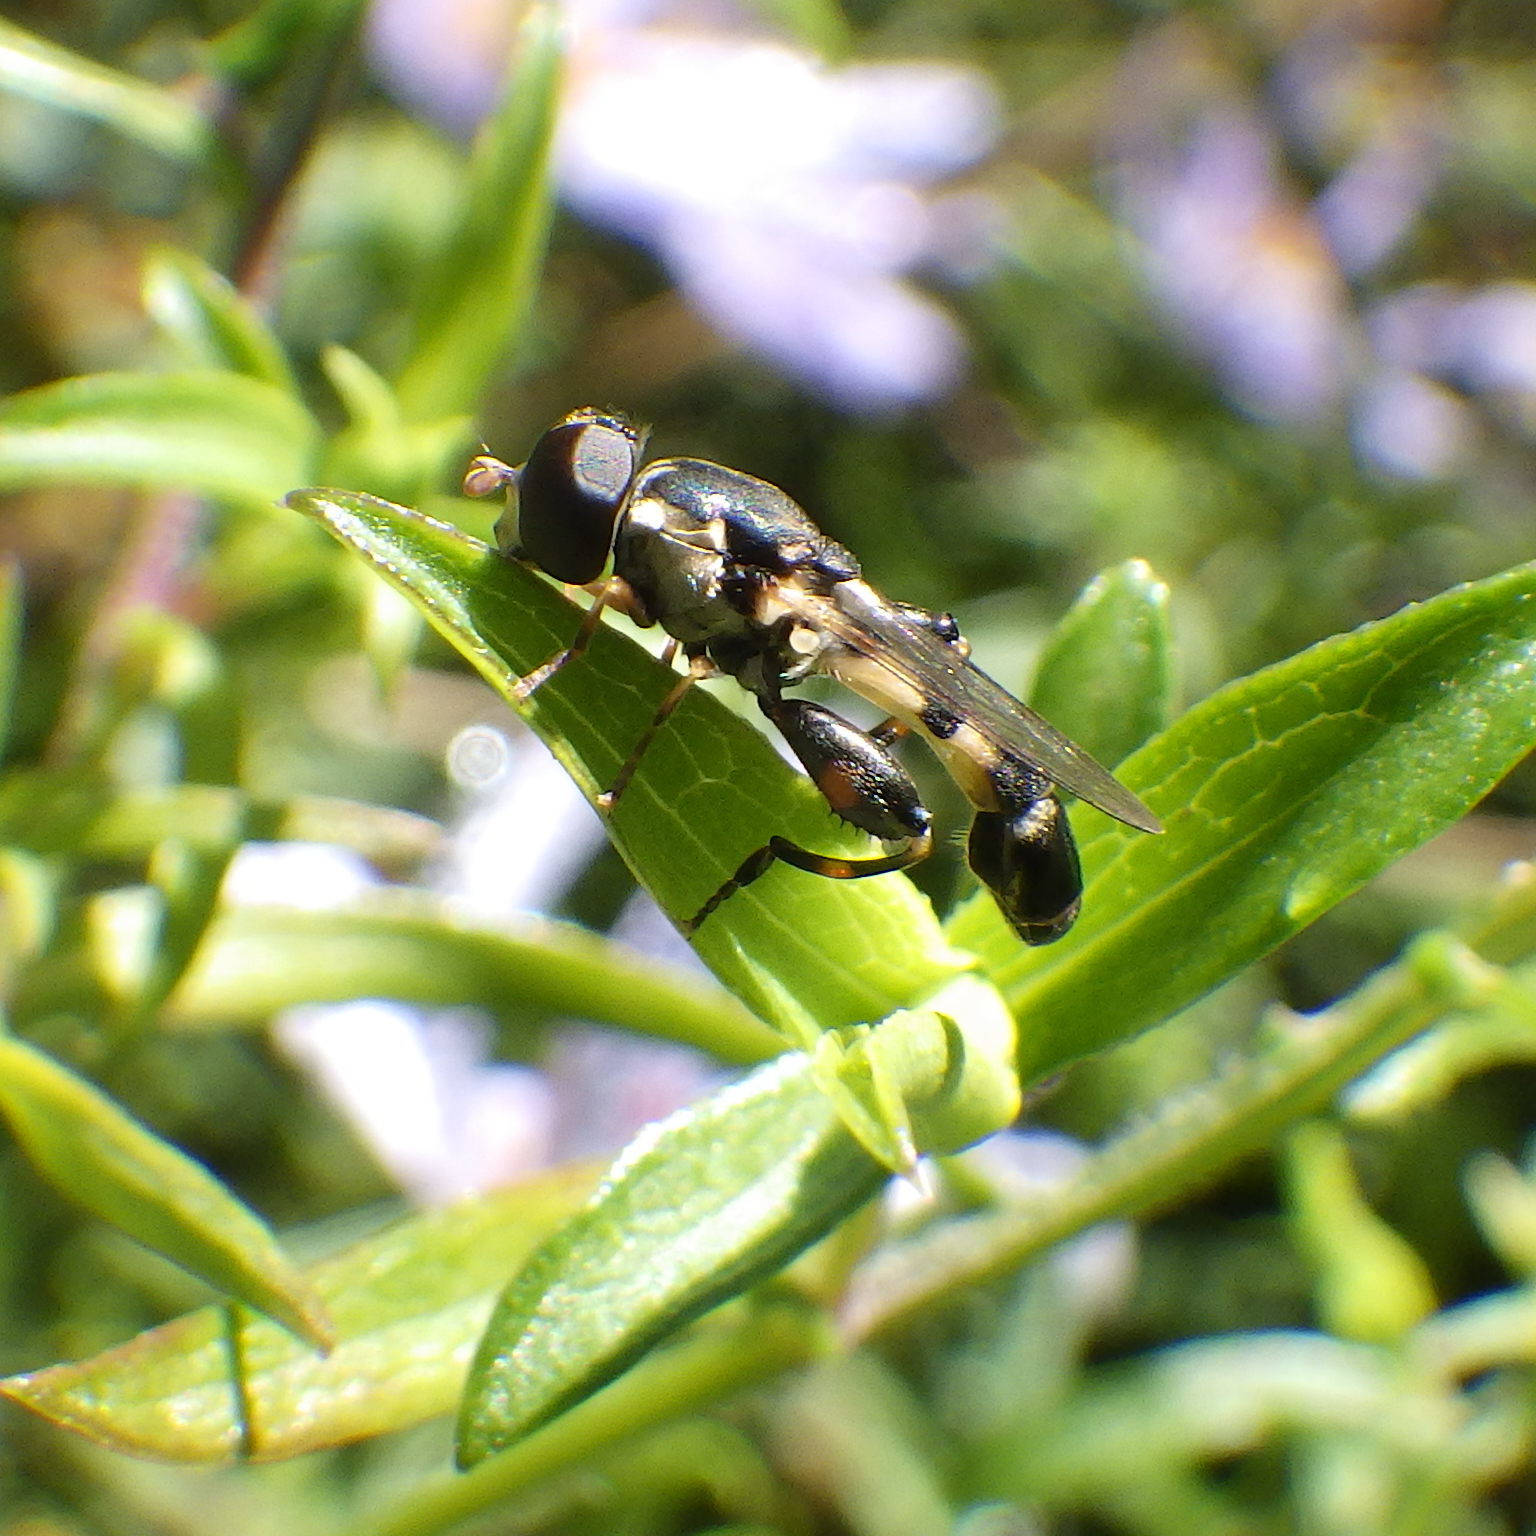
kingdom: Animalia
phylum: Arthropoda
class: Insecta
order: Diptera
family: Syrphidae
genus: Syritta
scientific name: Syritta pipiens
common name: Hover fly
